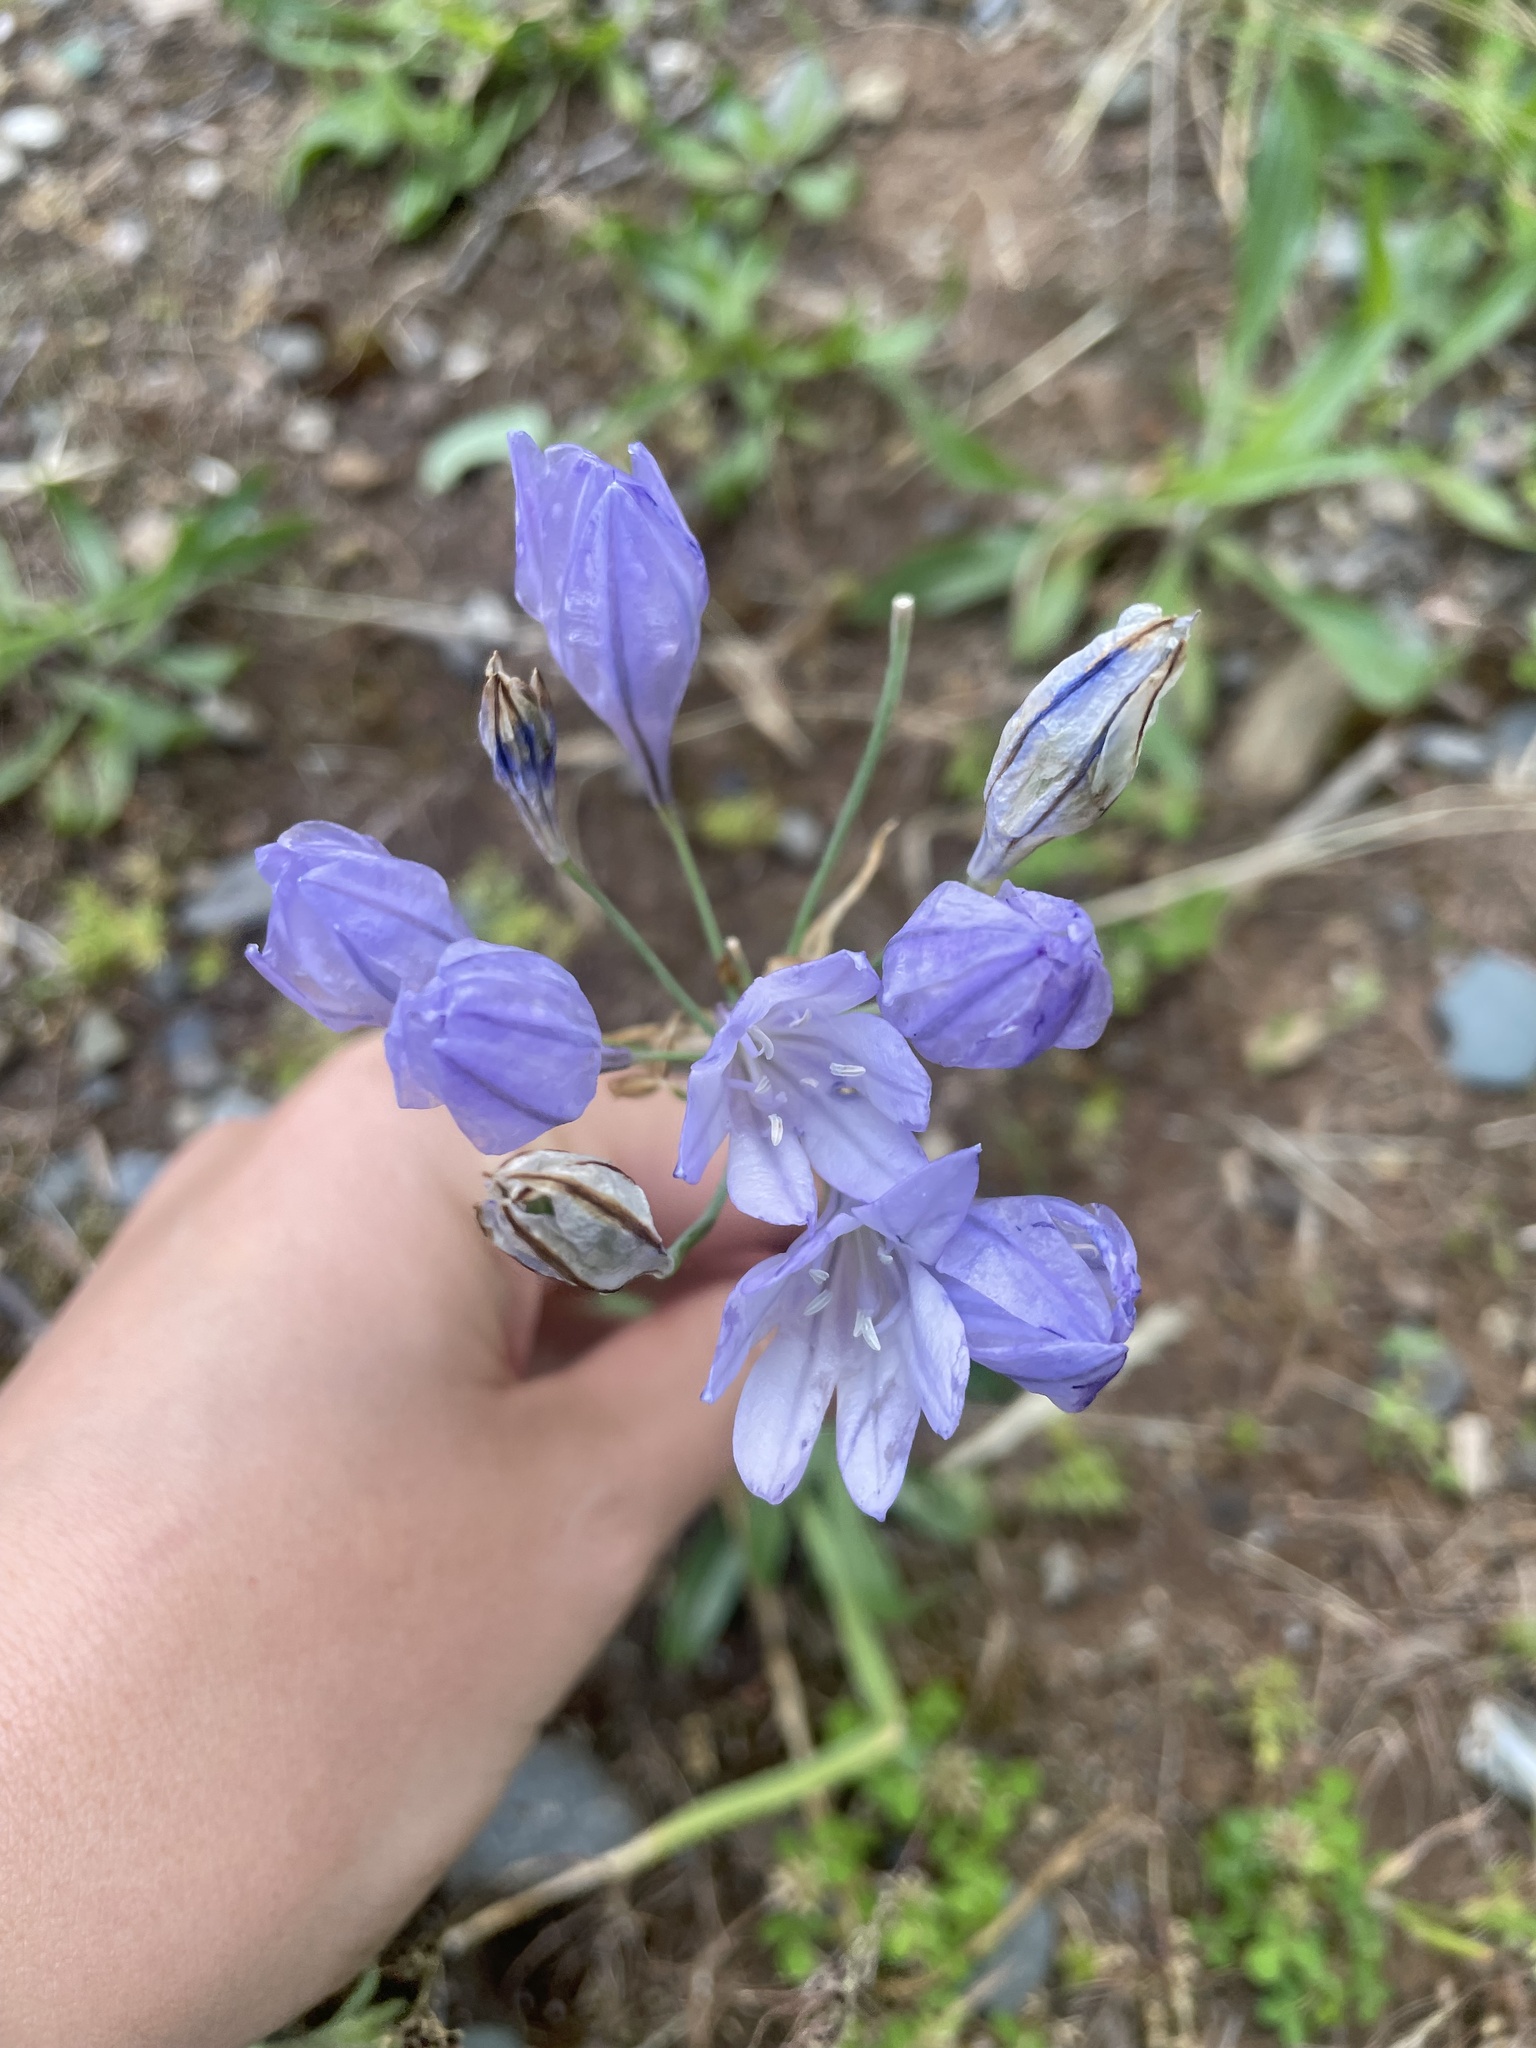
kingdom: Plantae
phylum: Tracheophyta
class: Liliopsida
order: Asparagales
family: Asparagaceae
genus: Triteleia
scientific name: Triteleia laxa
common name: Triplet-lily
